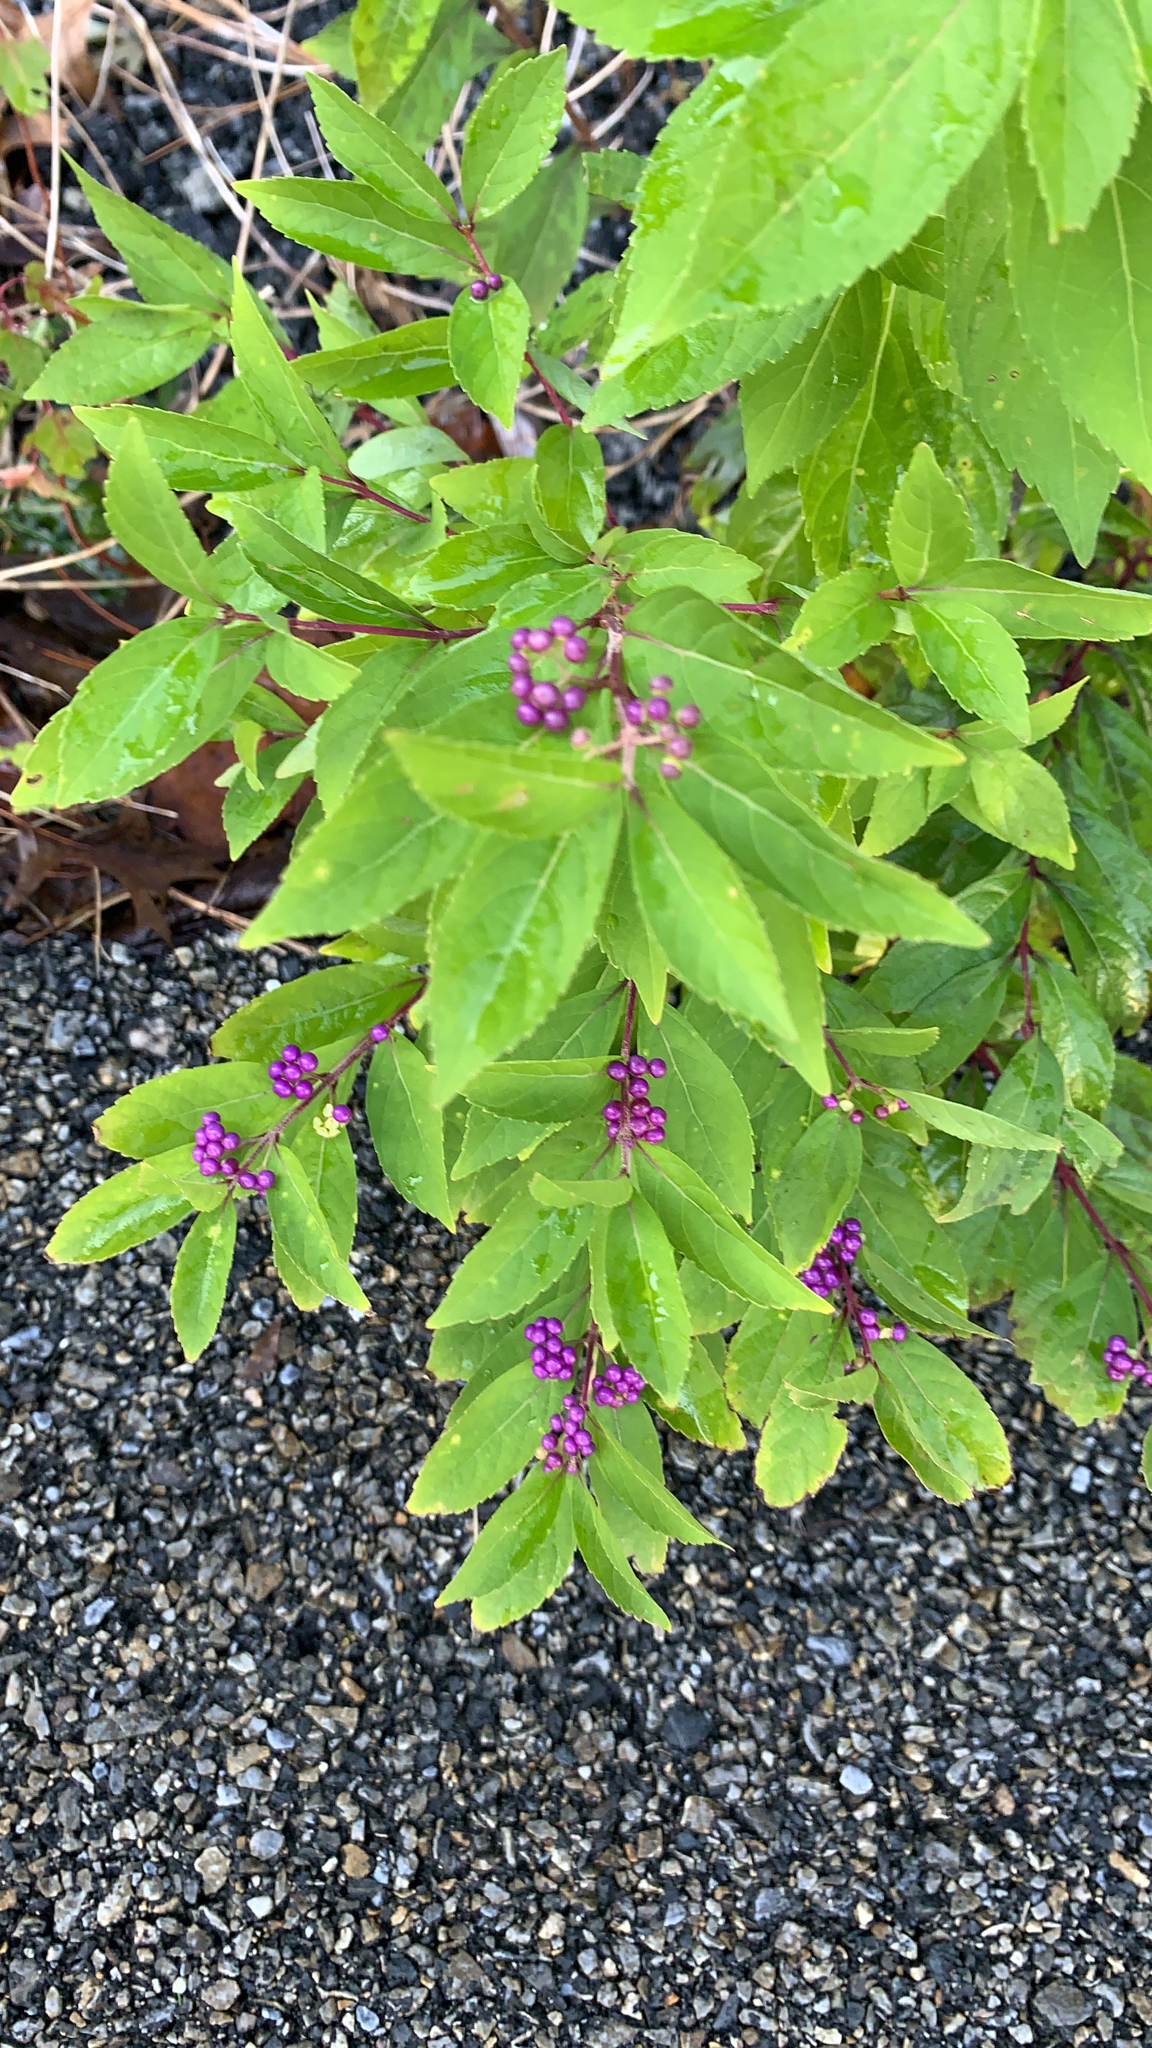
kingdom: Plantae
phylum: Tracheophyta
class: Magnoliopsida
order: Lamiales
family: Lamiaceae
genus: Callicarpa
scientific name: Callicarpa dichotoma
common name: Purple beauty-berry
